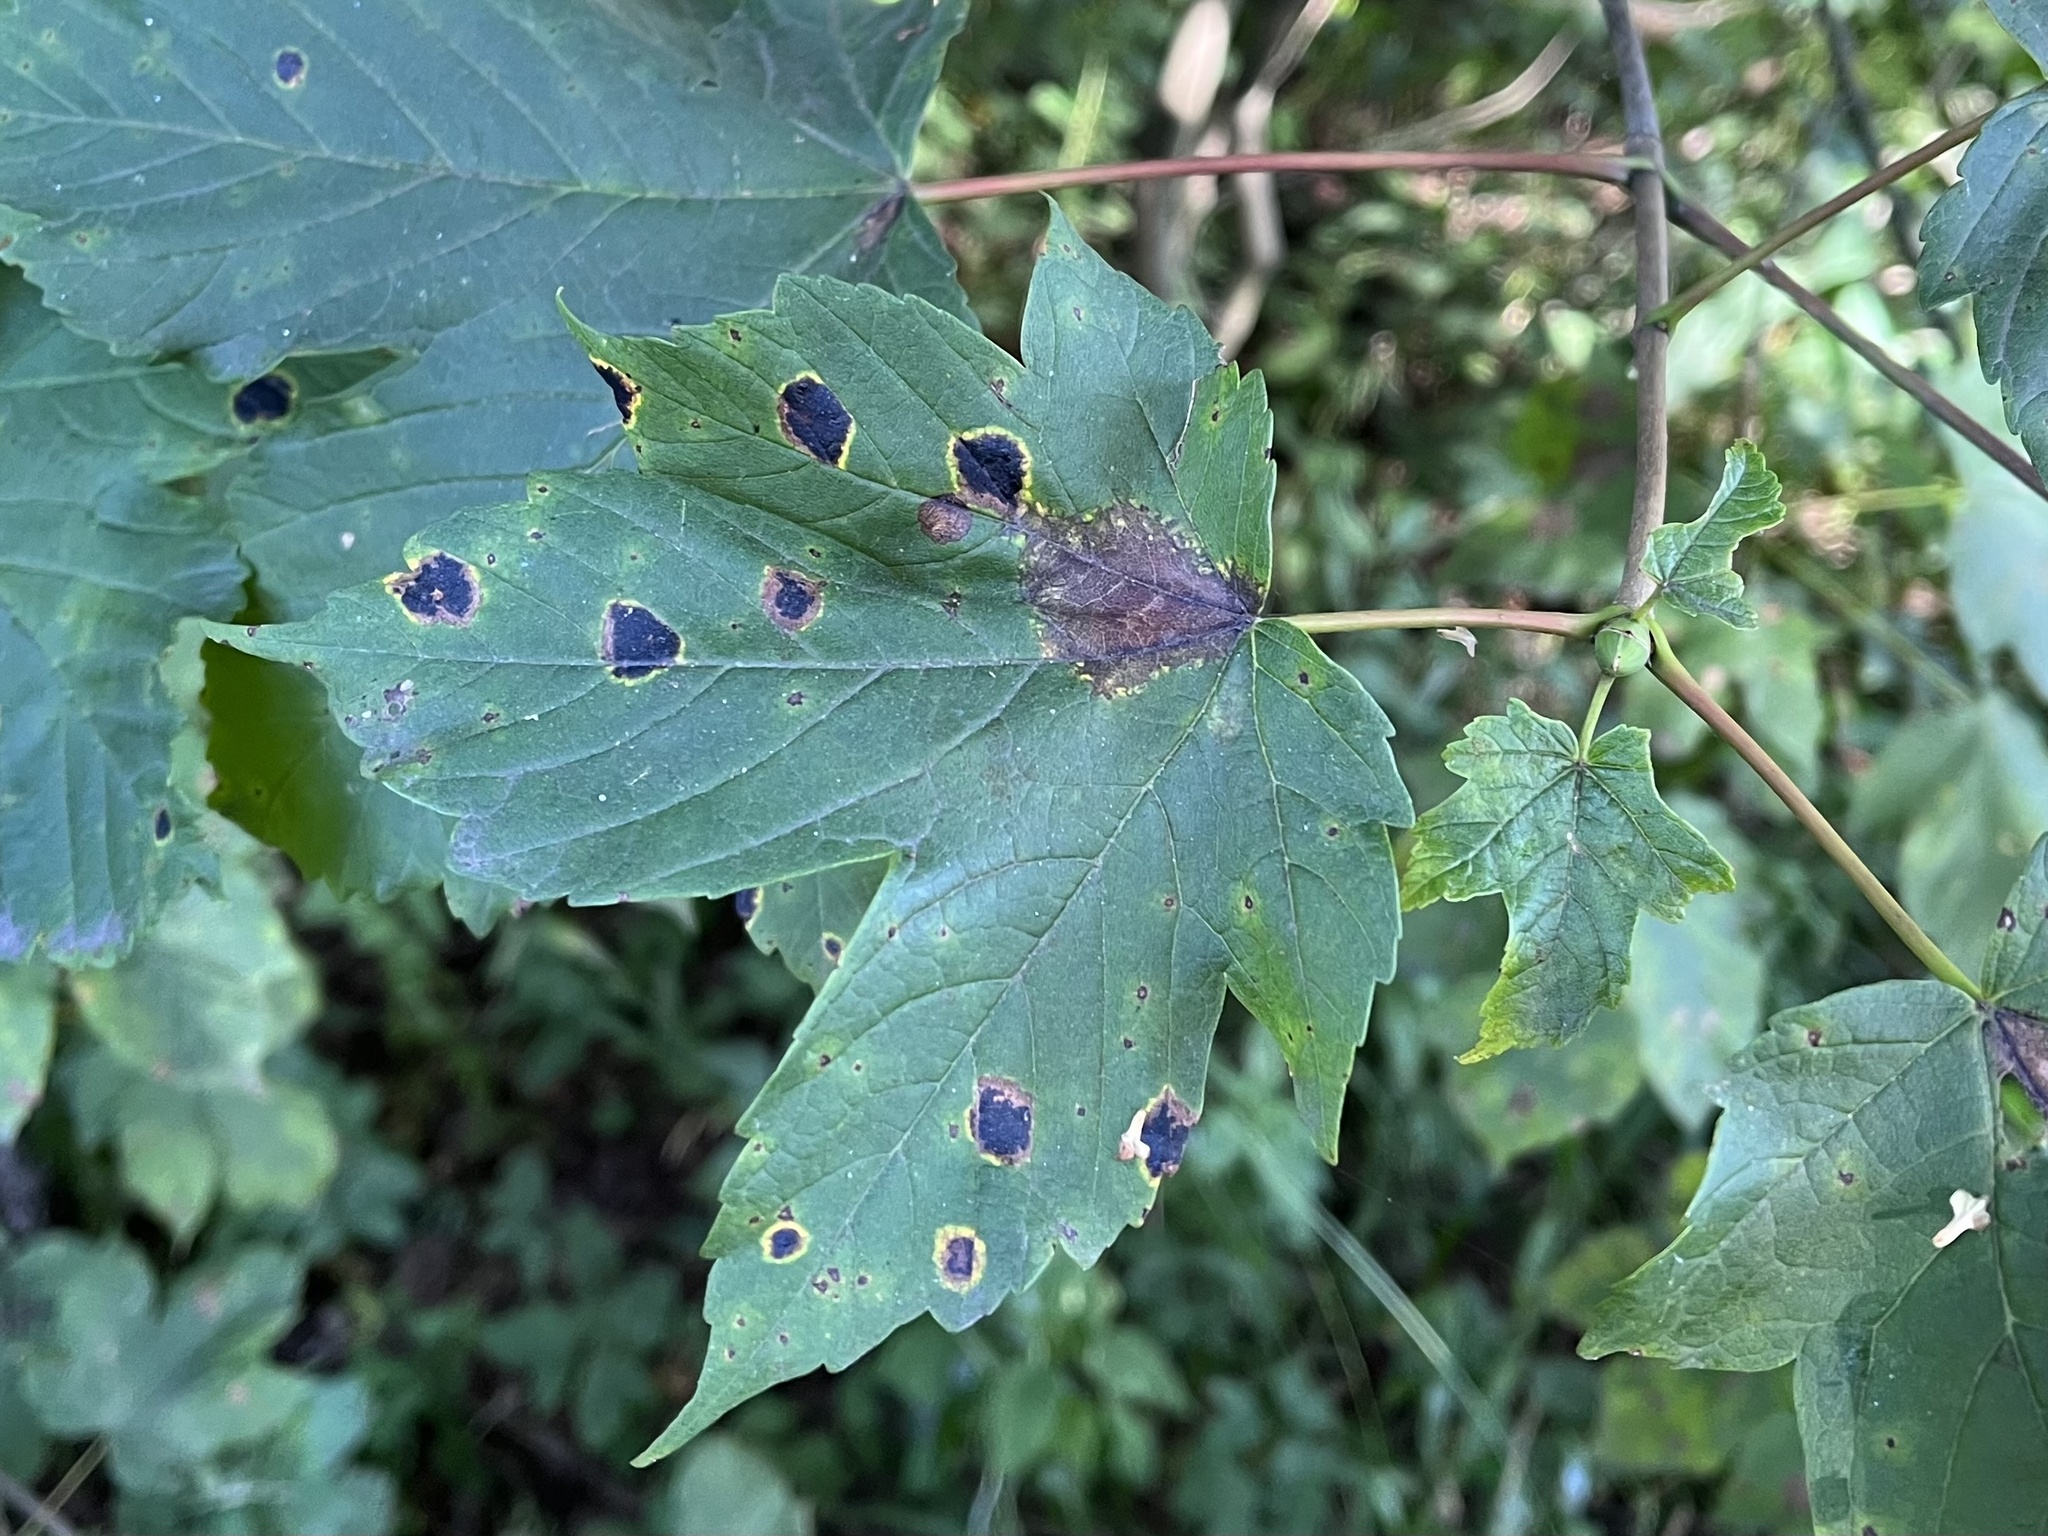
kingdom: Fungi
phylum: Ascomycota
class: Leotiomycetes
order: Rhytismatales
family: Rhytismataceae
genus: Rhytisma
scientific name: Rhytisma acerinum
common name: European tar spot
